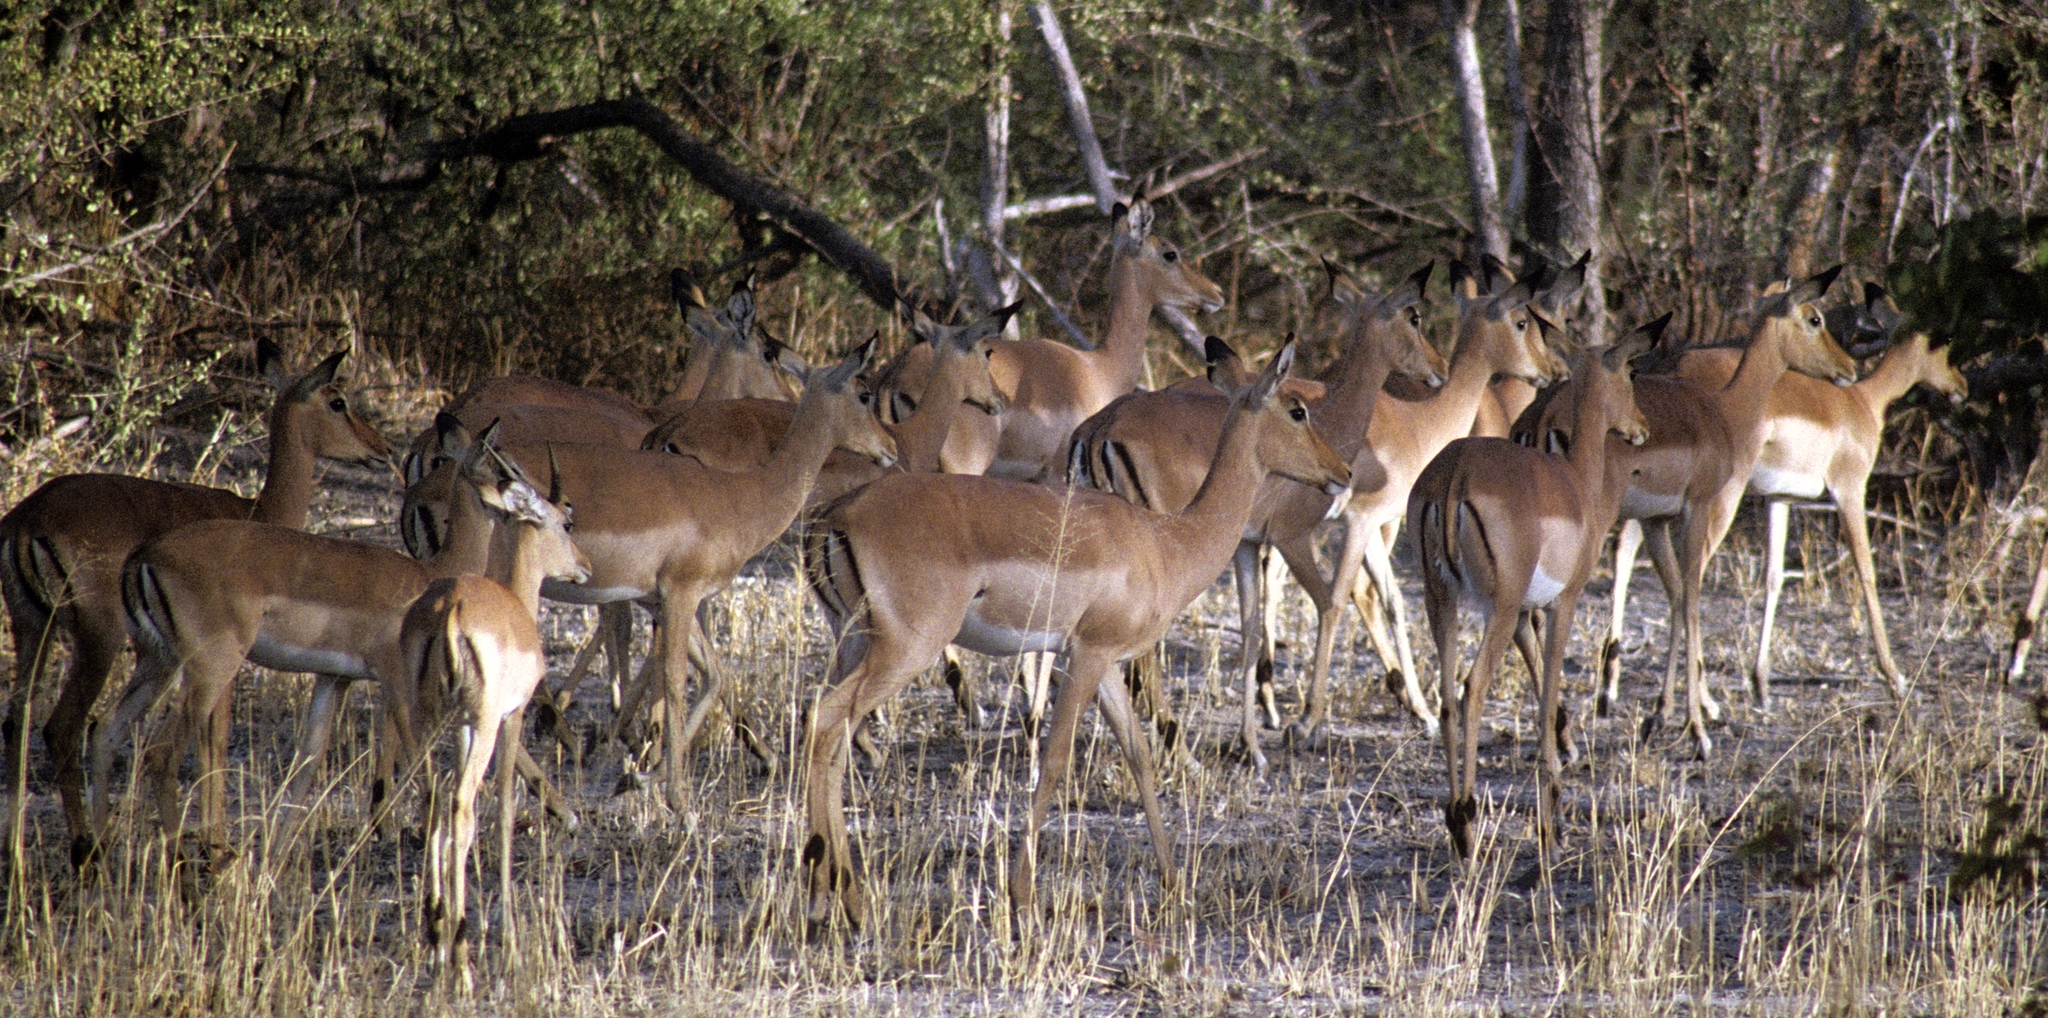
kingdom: Animalia
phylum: Chordata
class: Mammalia
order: Artiodactyla
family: Bovidae
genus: Aepyceros
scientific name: Aepyceros melampus
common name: Impala
